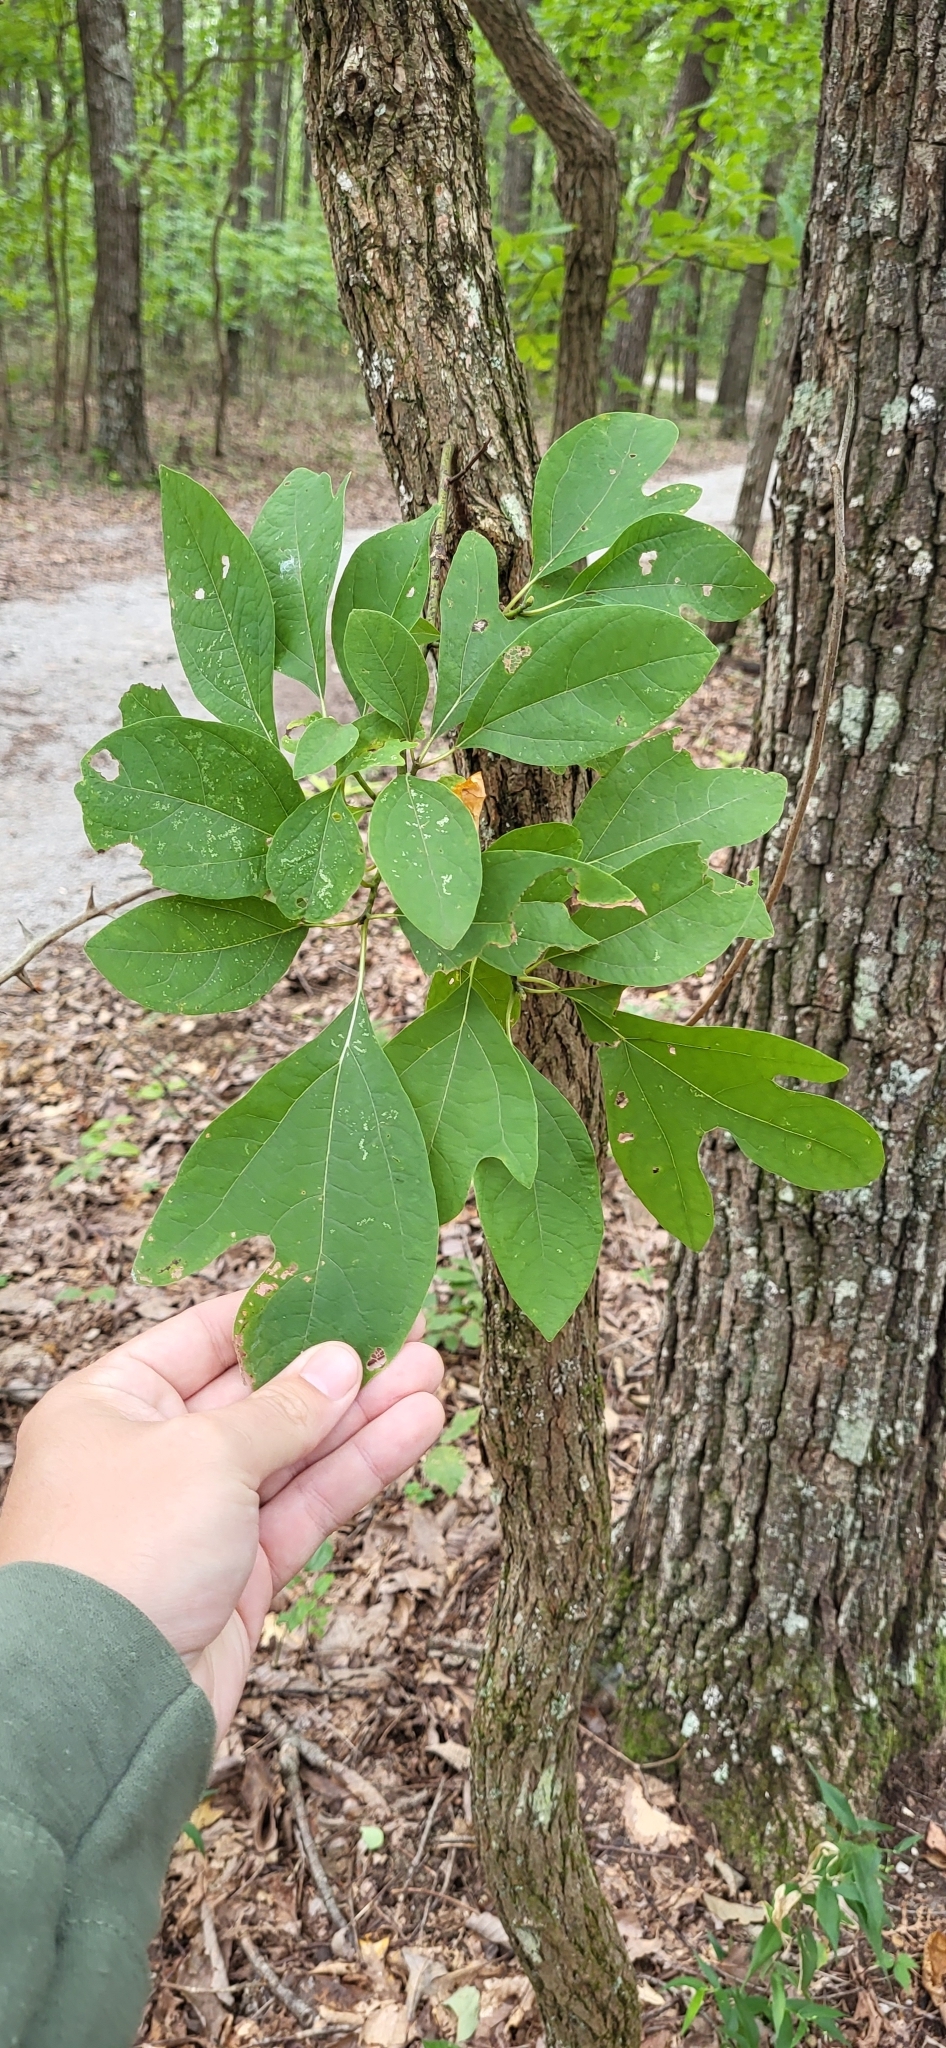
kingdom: Plantae
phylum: Tracheophyta
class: Magnoliopsida
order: Laurales
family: Lauraceae
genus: Sassafras
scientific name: Sassafras albidum
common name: Sassafras
